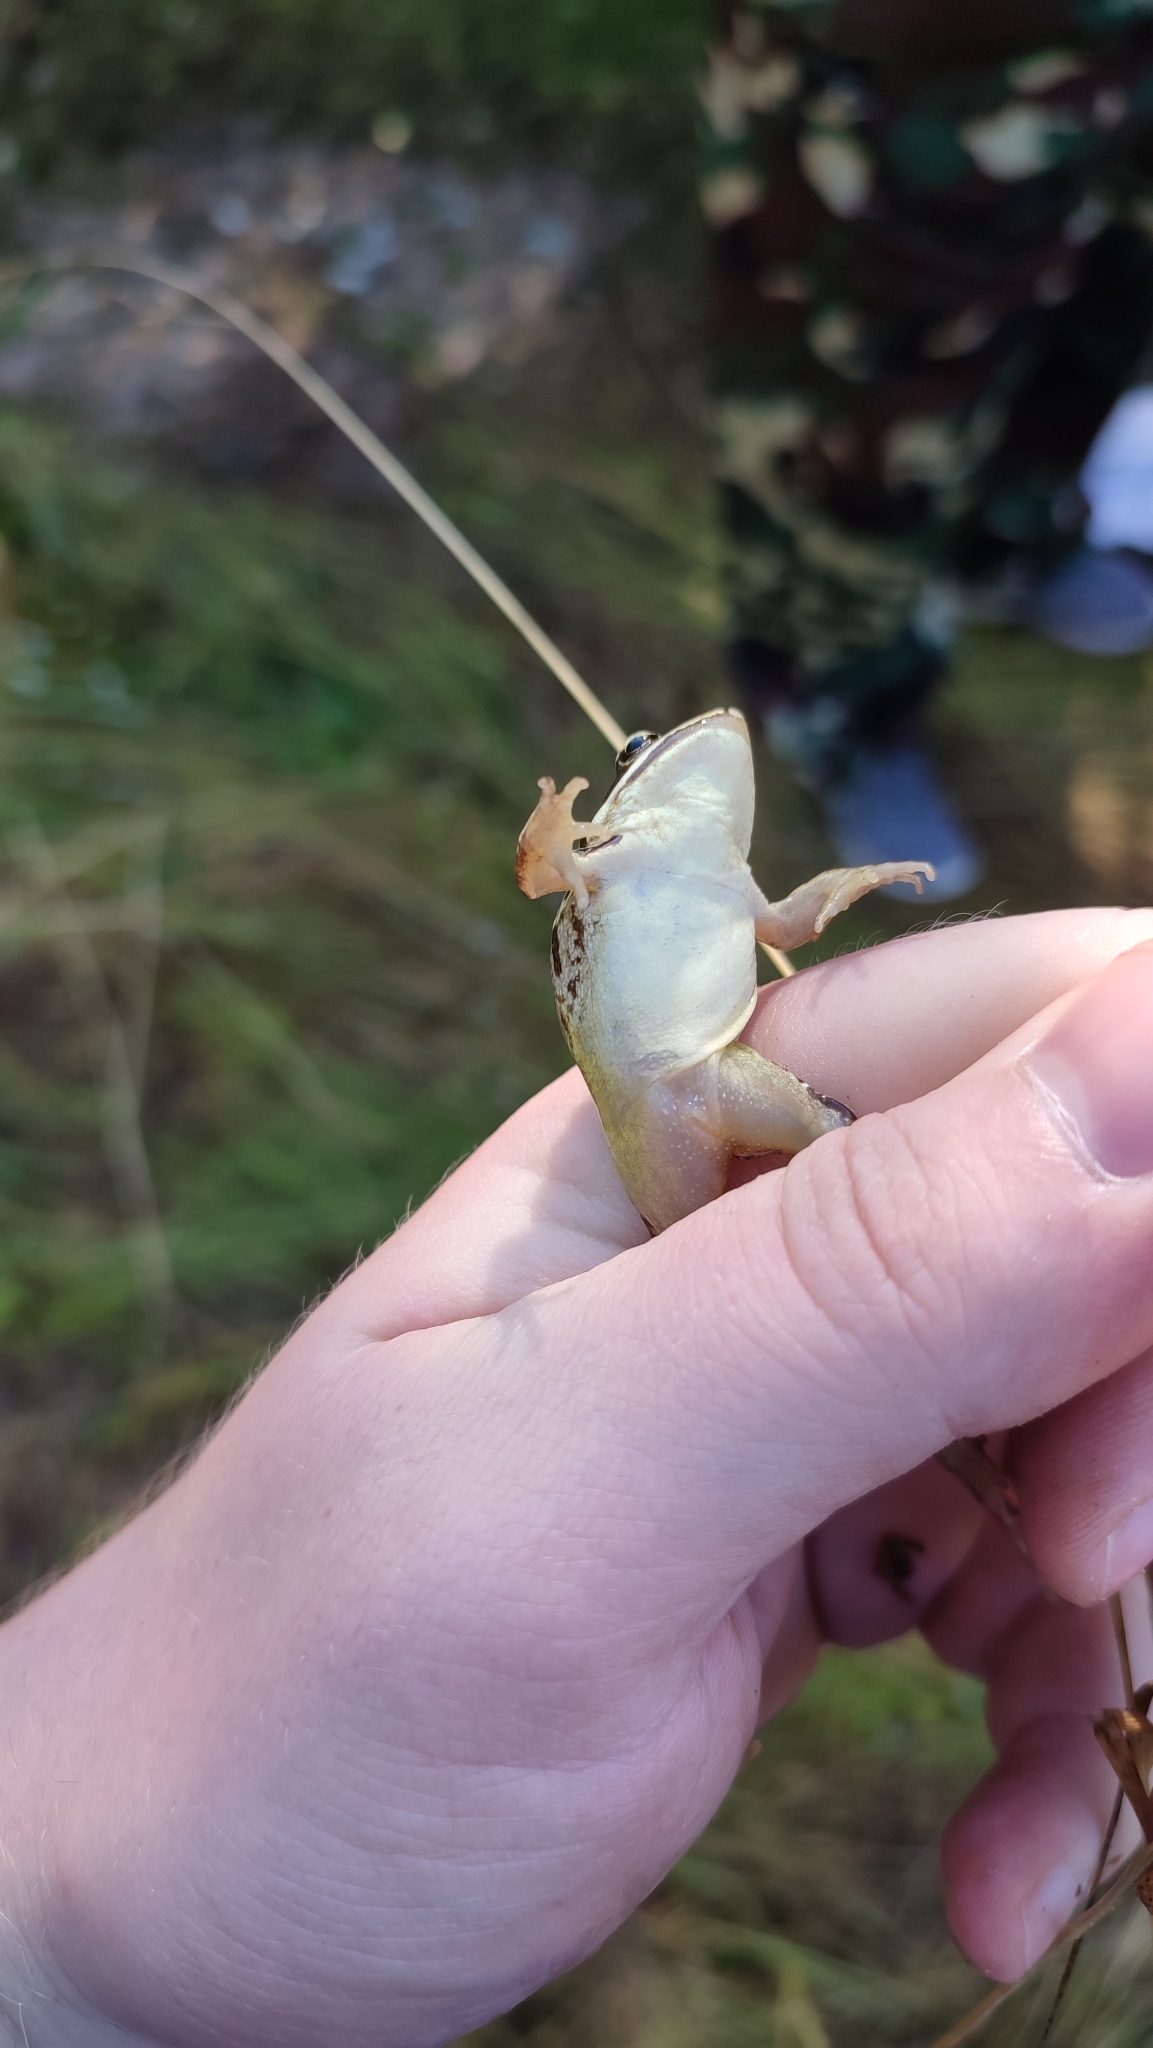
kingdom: Animalia
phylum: Chordata
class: Amphibia
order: Anura
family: Ranidae
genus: Rana
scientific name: Rana arvalis
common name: Moor frog
